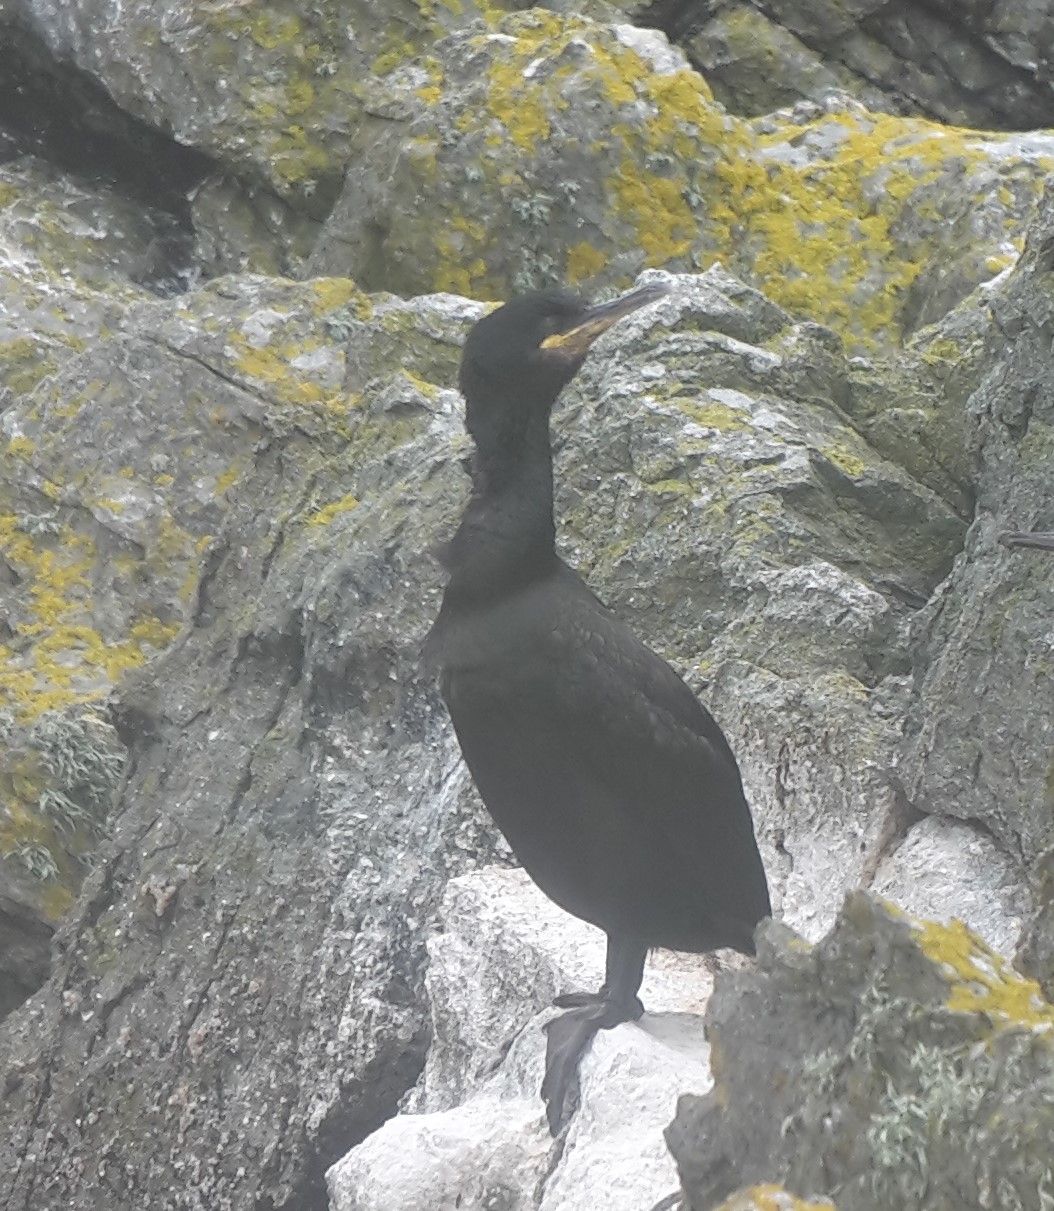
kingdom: Animalia
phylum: Chordata
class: Aves
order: Suliformes
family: Phalacrocoracidae
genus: Phalacrocorax
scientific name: Phalacrocorax aristotelis
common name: European shag
